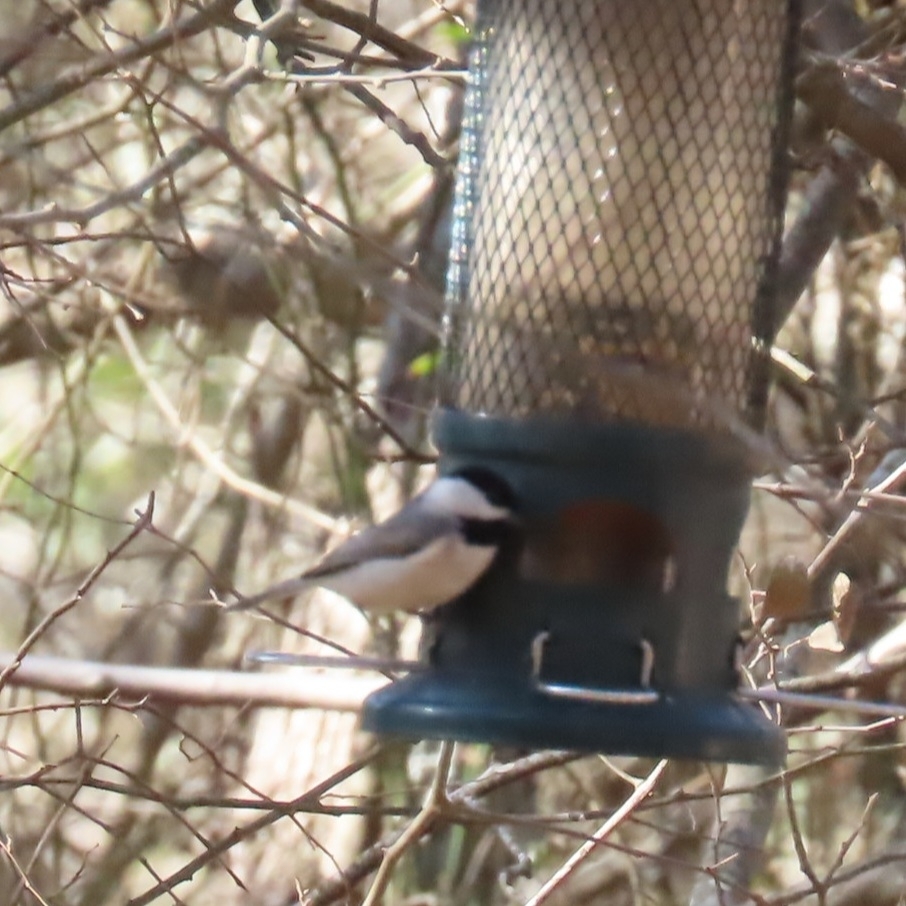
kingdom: Animalia
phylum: Chordata
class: Aves
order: Passeriformes
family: Paridae
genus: Poecile
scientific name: Poecile carolinensis
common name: Carolina chickadee
